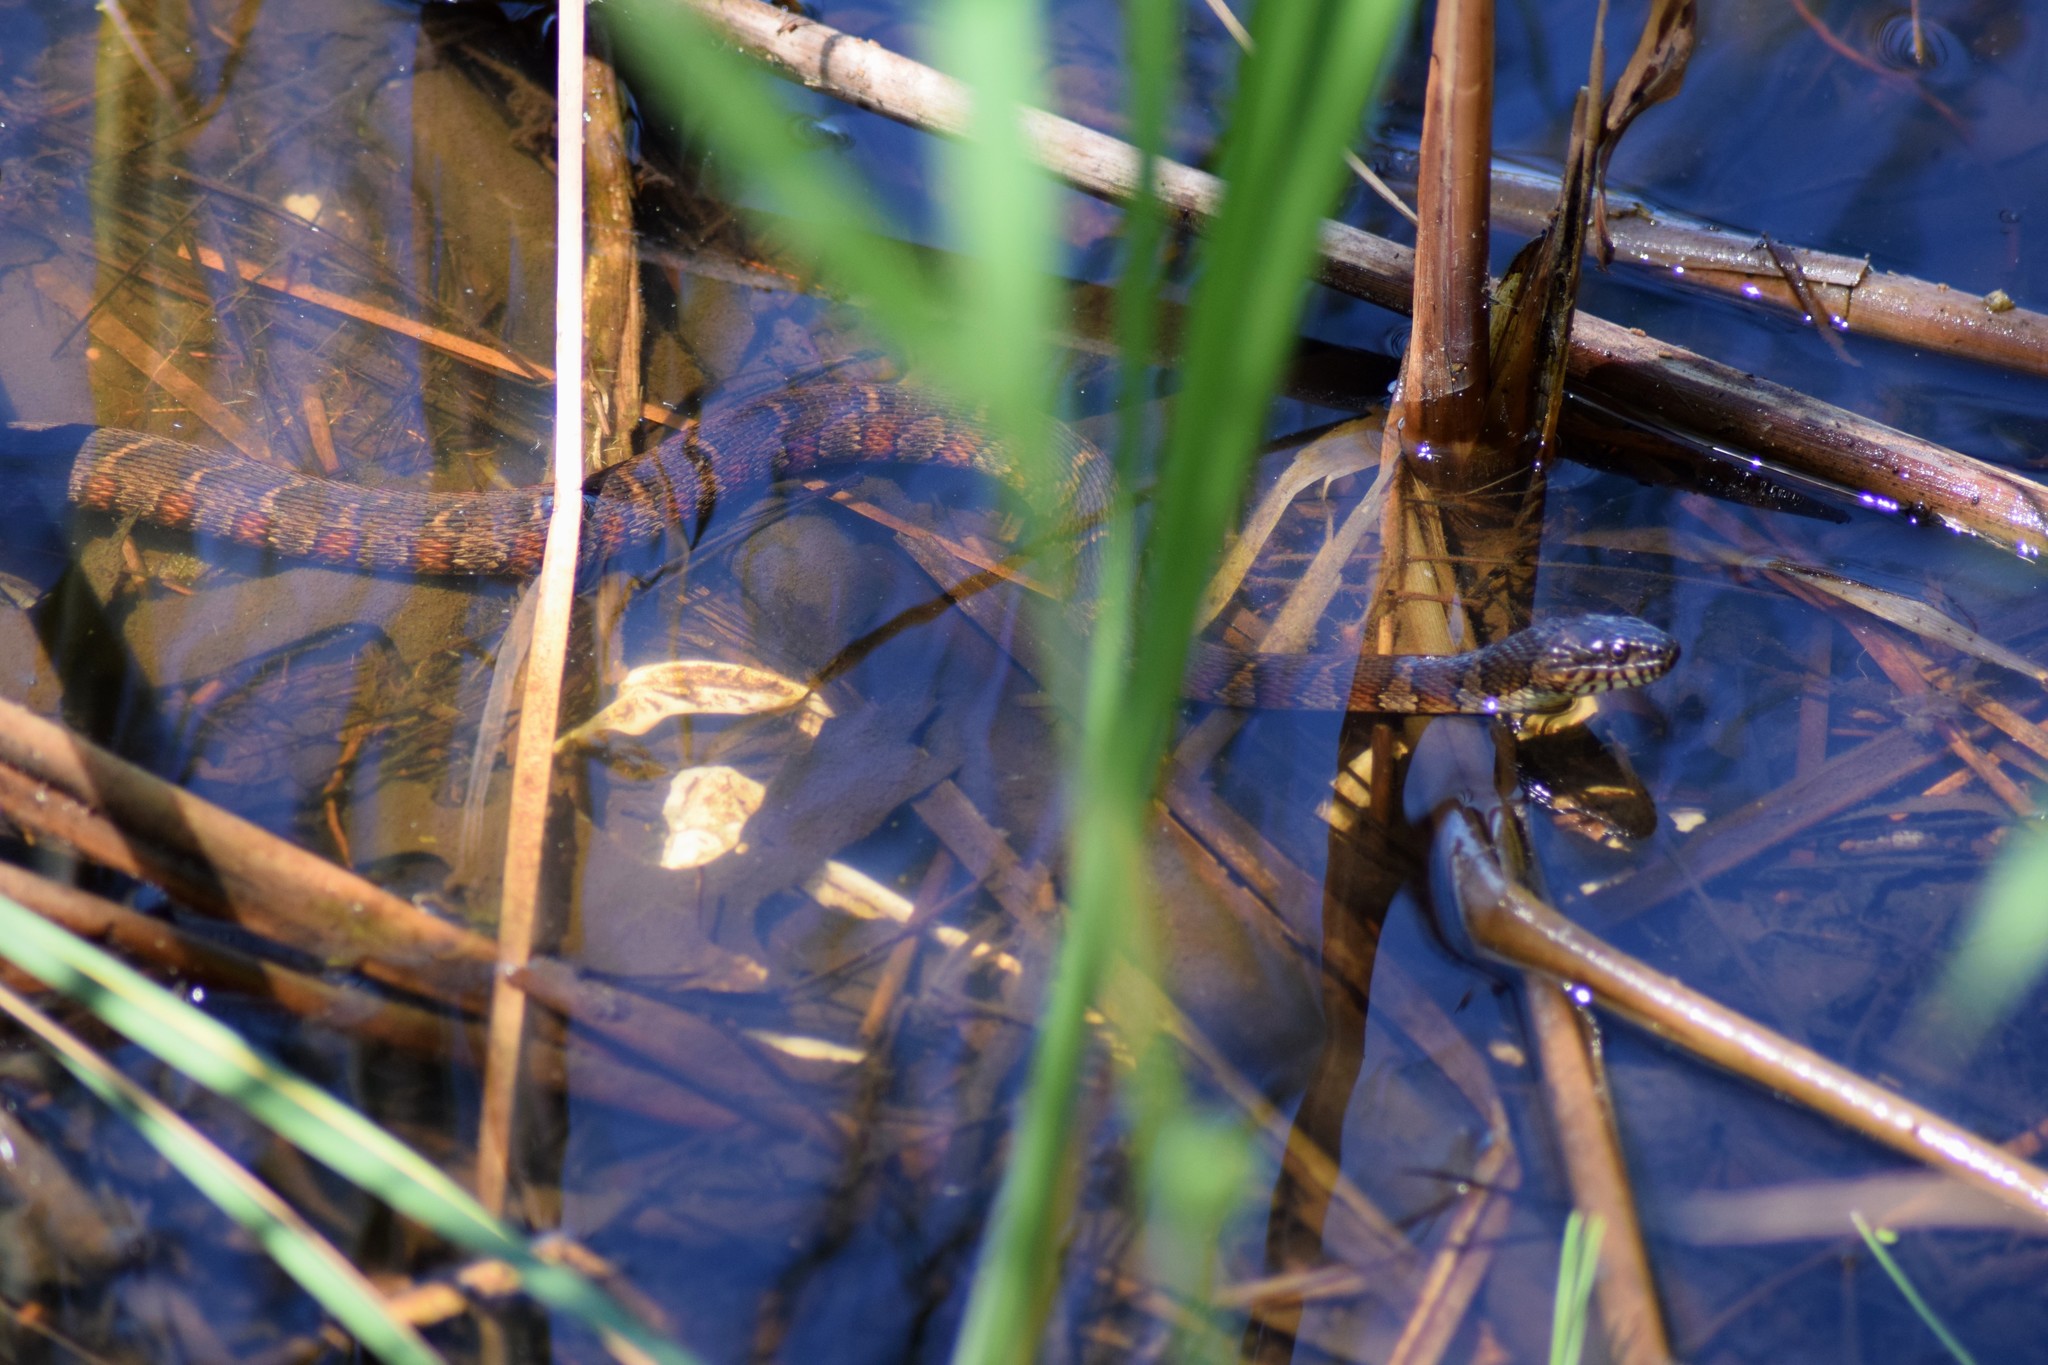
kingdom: Animalia
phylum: Chordata
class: Squamata
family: Colubridae
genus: Nerodia
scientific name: Nerodia sipedon
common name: Northern water snake
